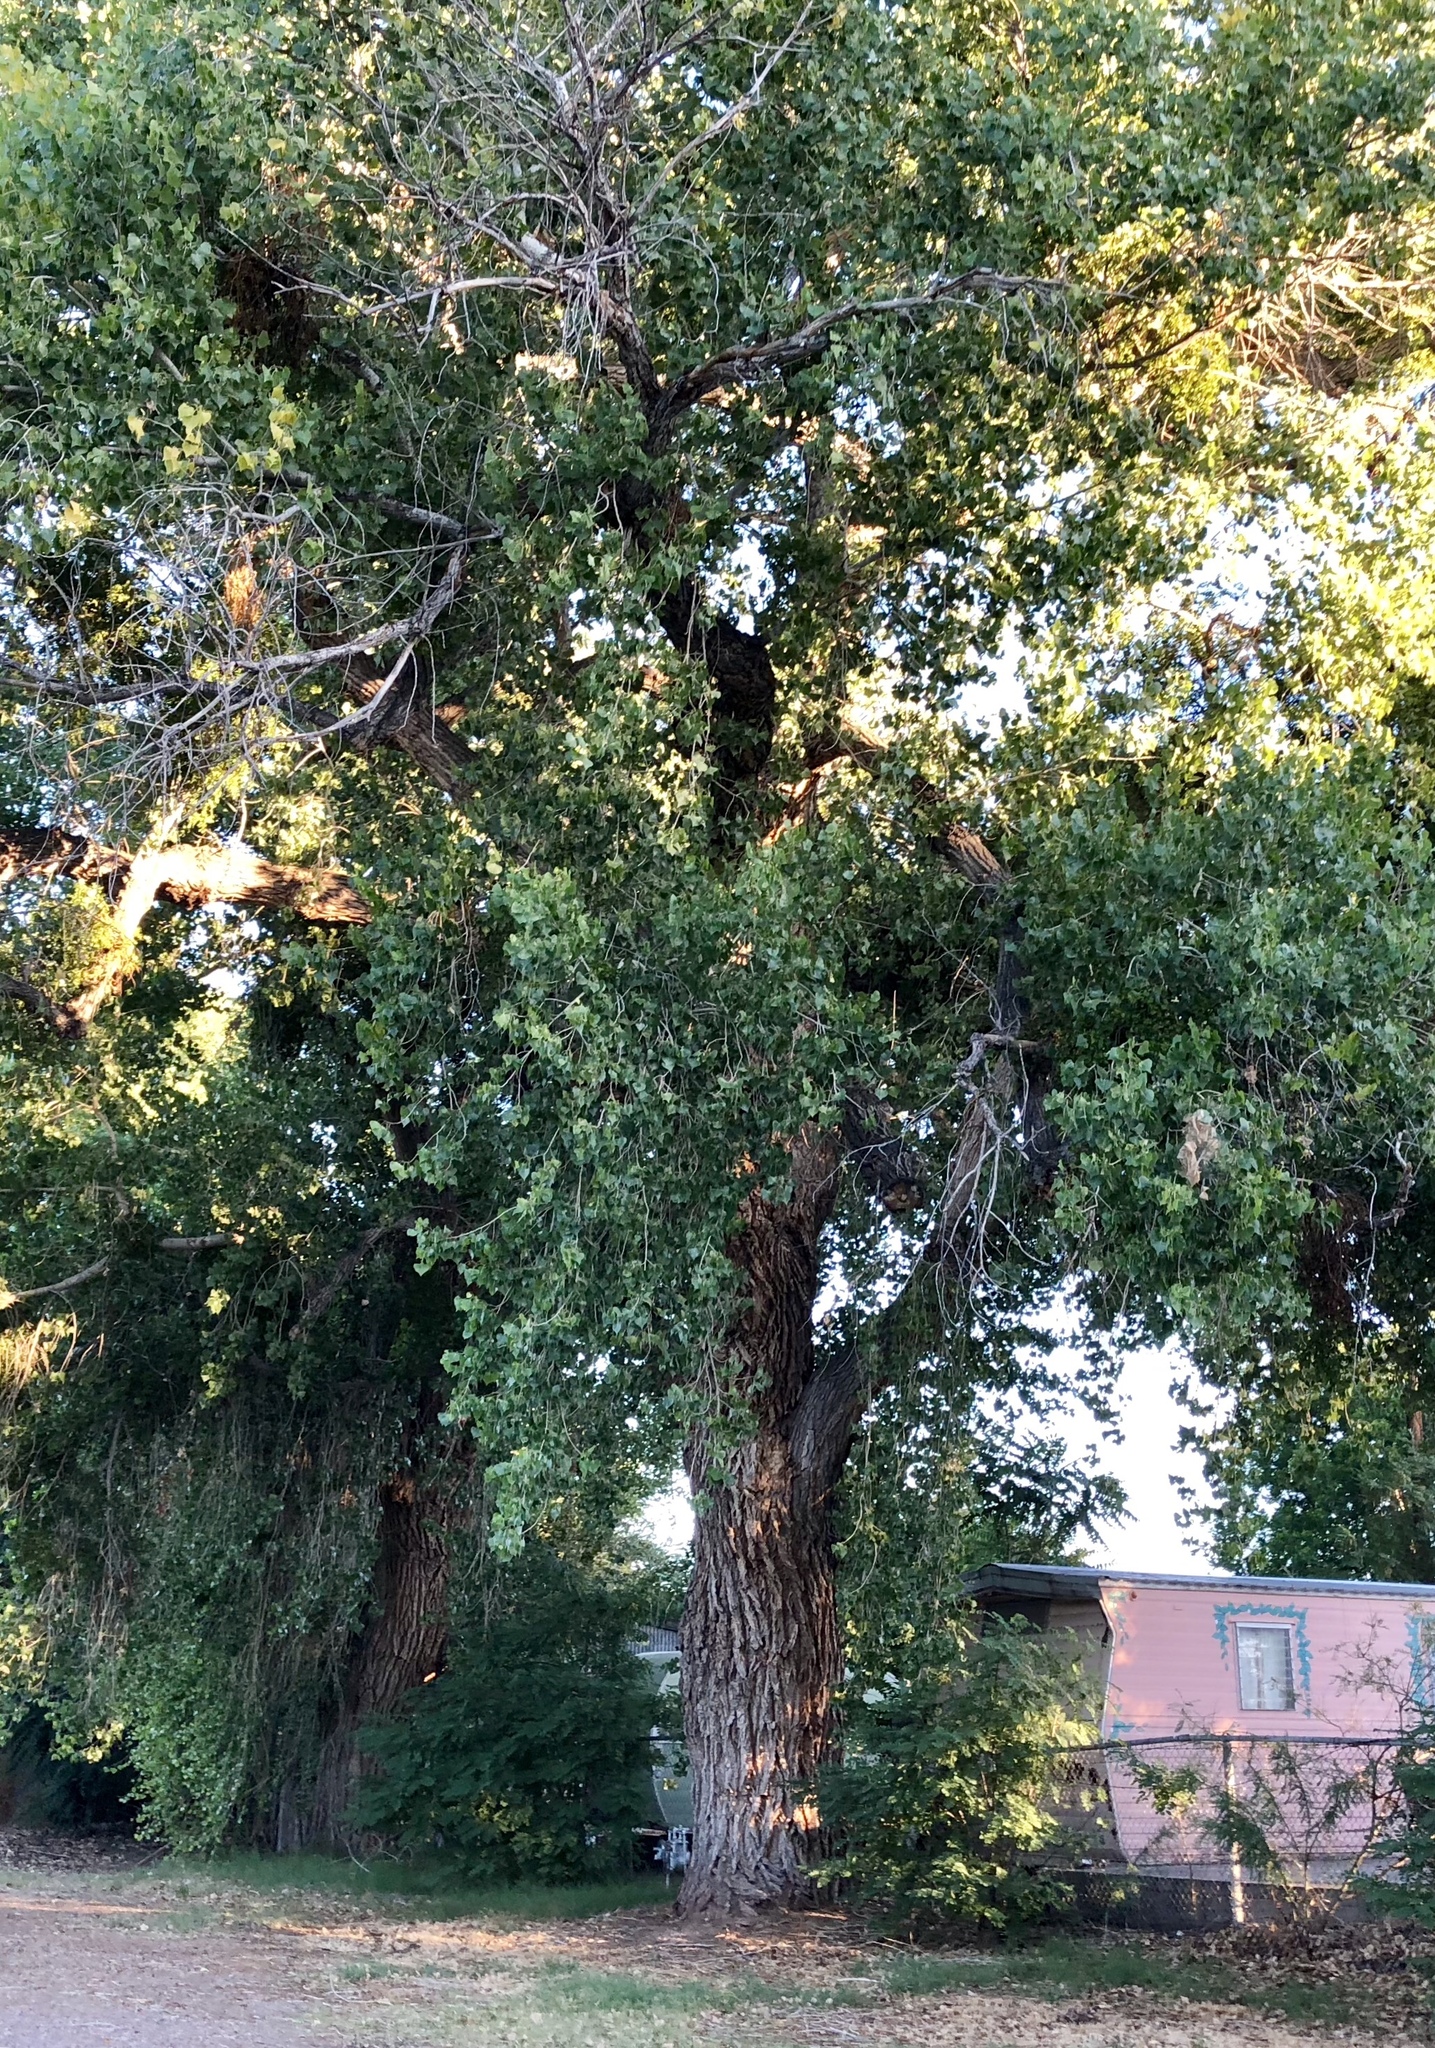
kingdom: Plantae
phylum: Tracheophyta
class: Magnoliopsida
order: Malpighiales
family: Salicaceae
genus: Populus
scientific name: Populus fremontii
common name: Fremont's cottonwood
